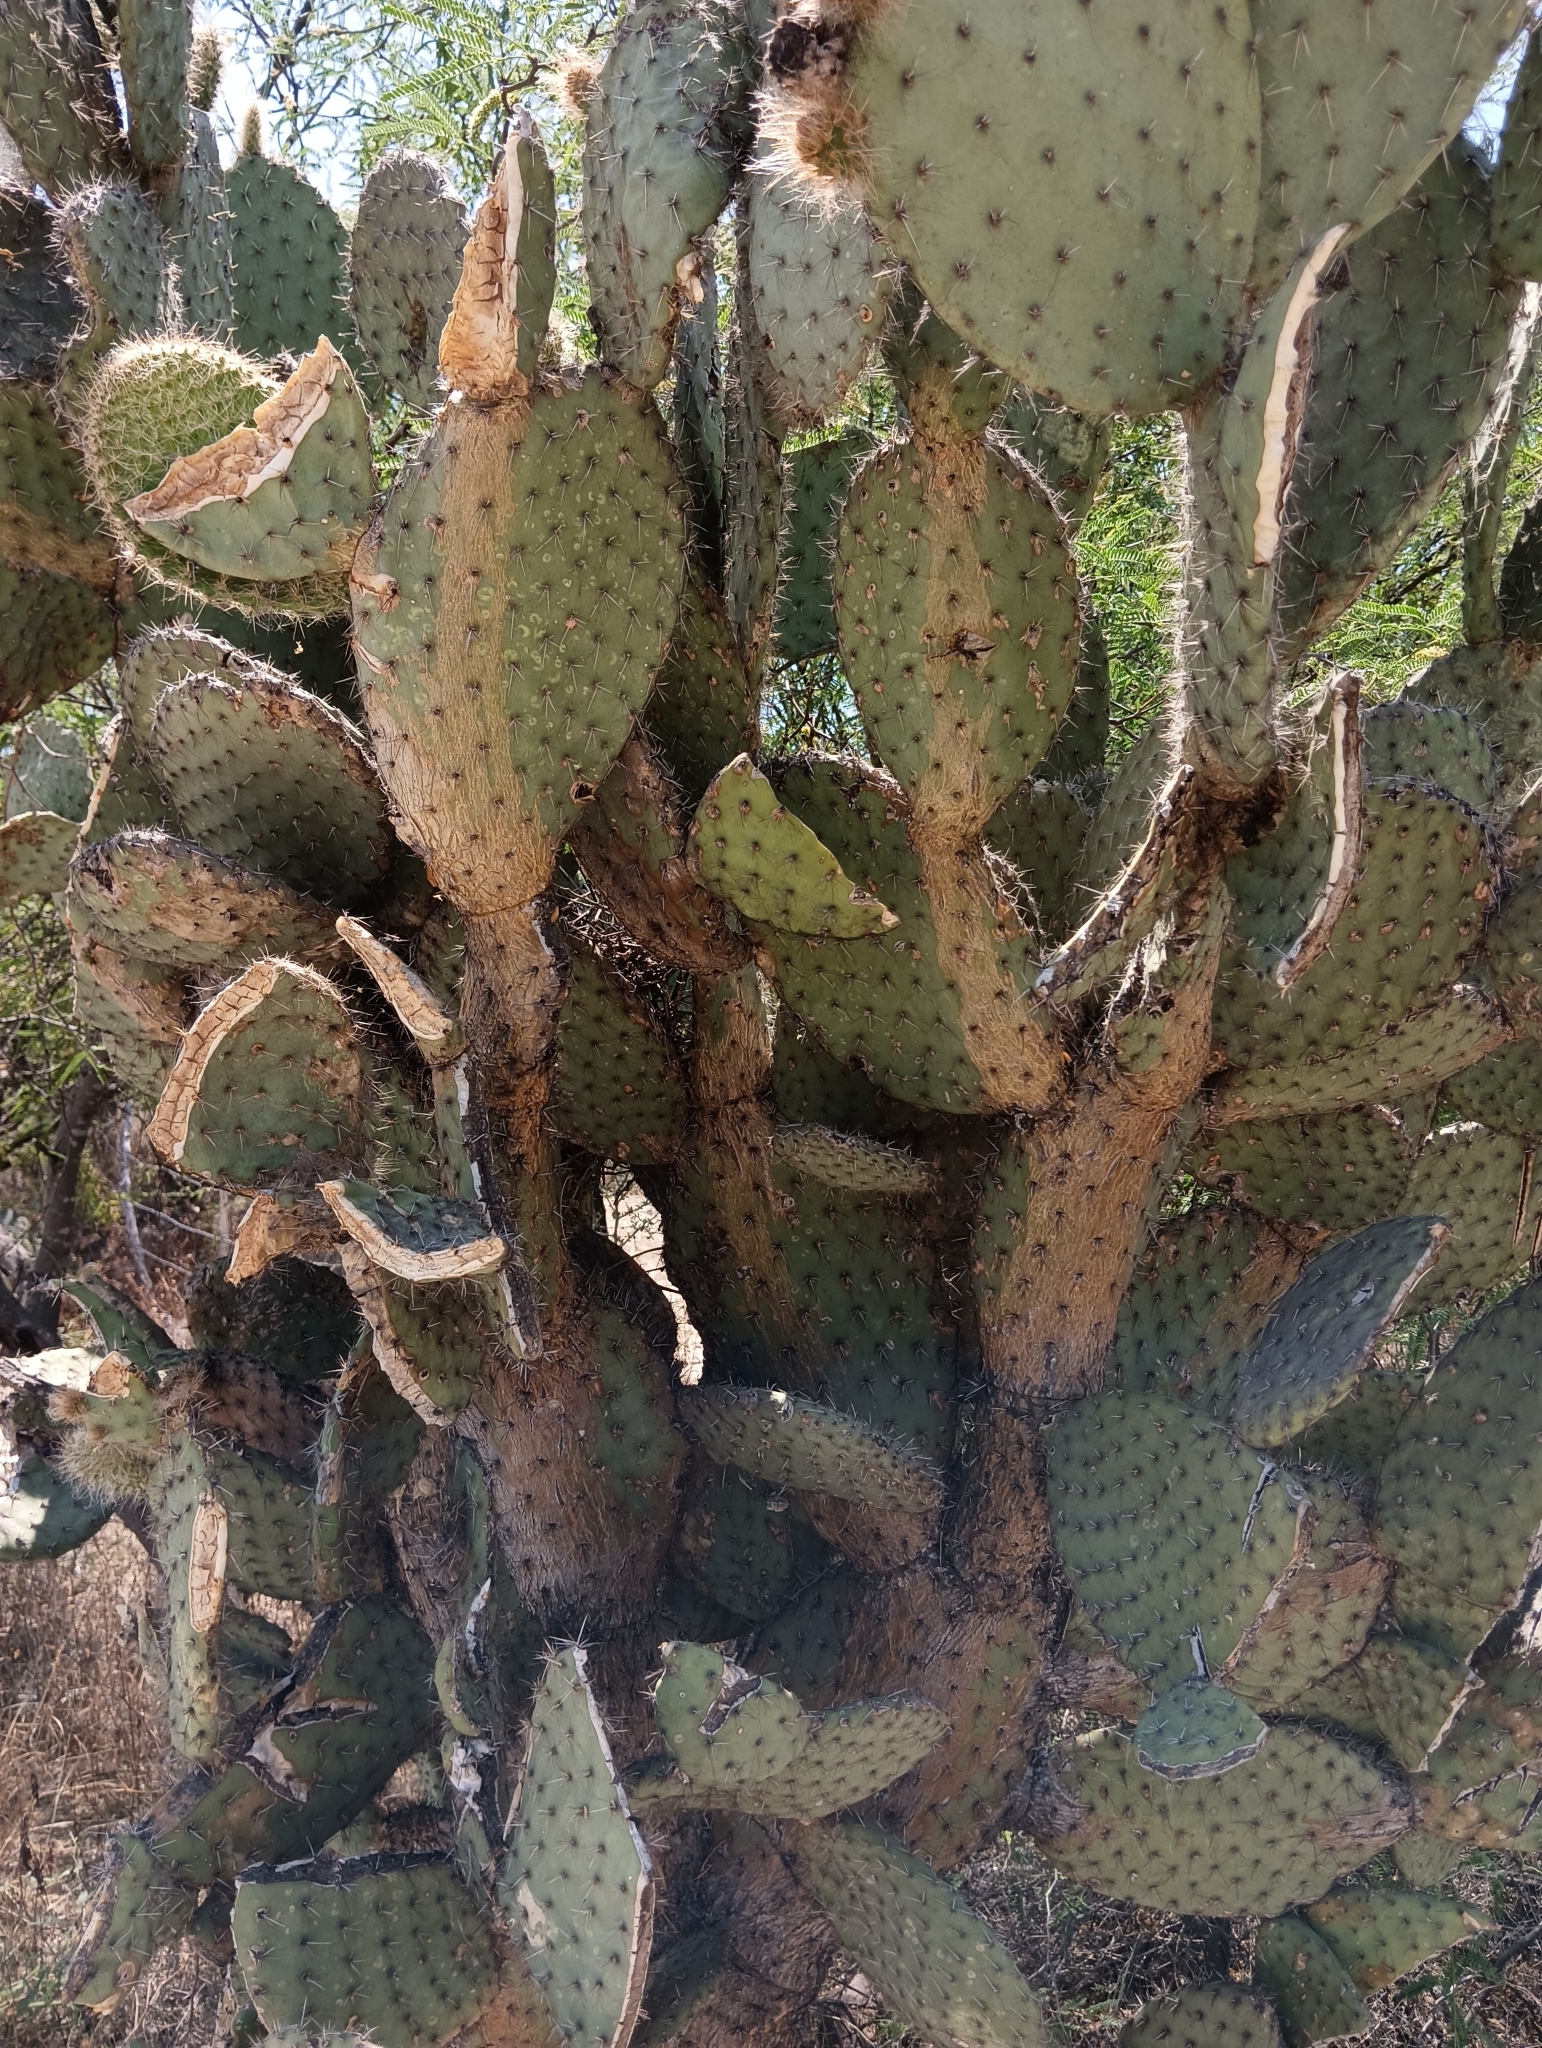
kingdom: Plantae
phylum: Tracheophyta
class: Magnoliopsida
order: Caryophyllales
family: Cactaceae
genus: Opuntia
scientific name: Opuntia pilifera
